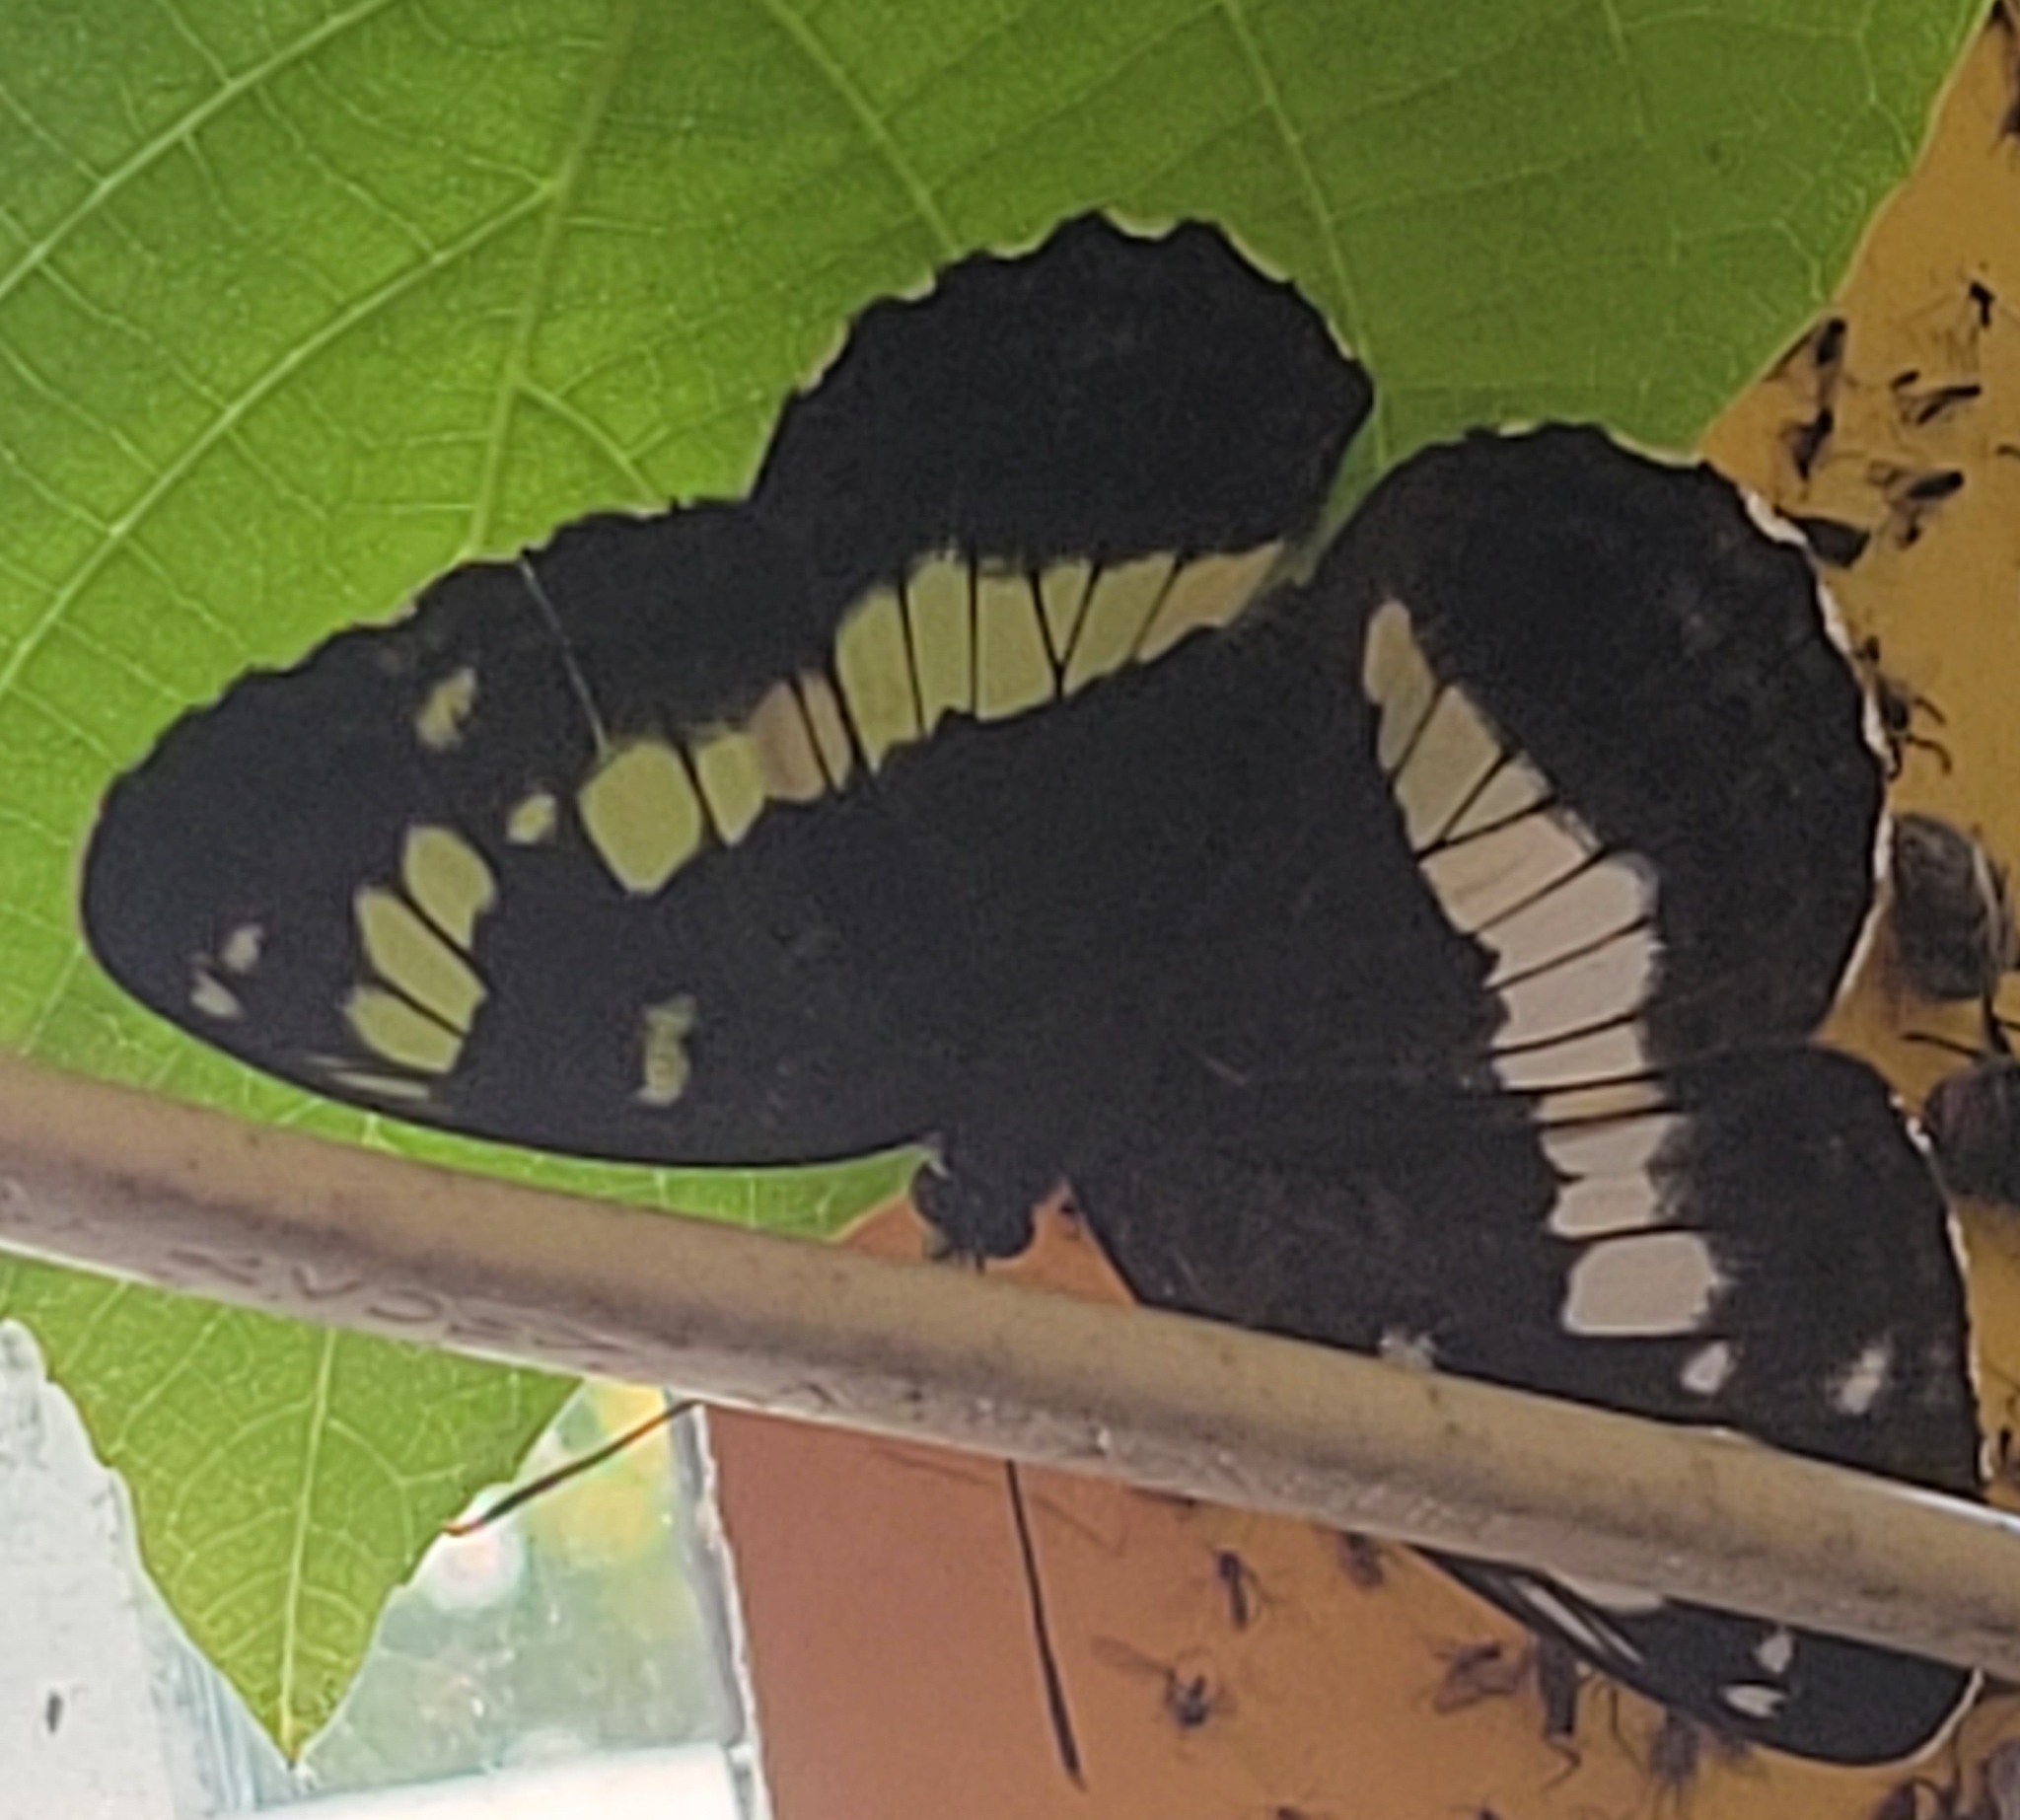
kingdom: Animalia
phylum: Arthropoda
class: Insecta
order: Lepidoptera
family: Nymphalidae
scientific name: Nymphalidae
